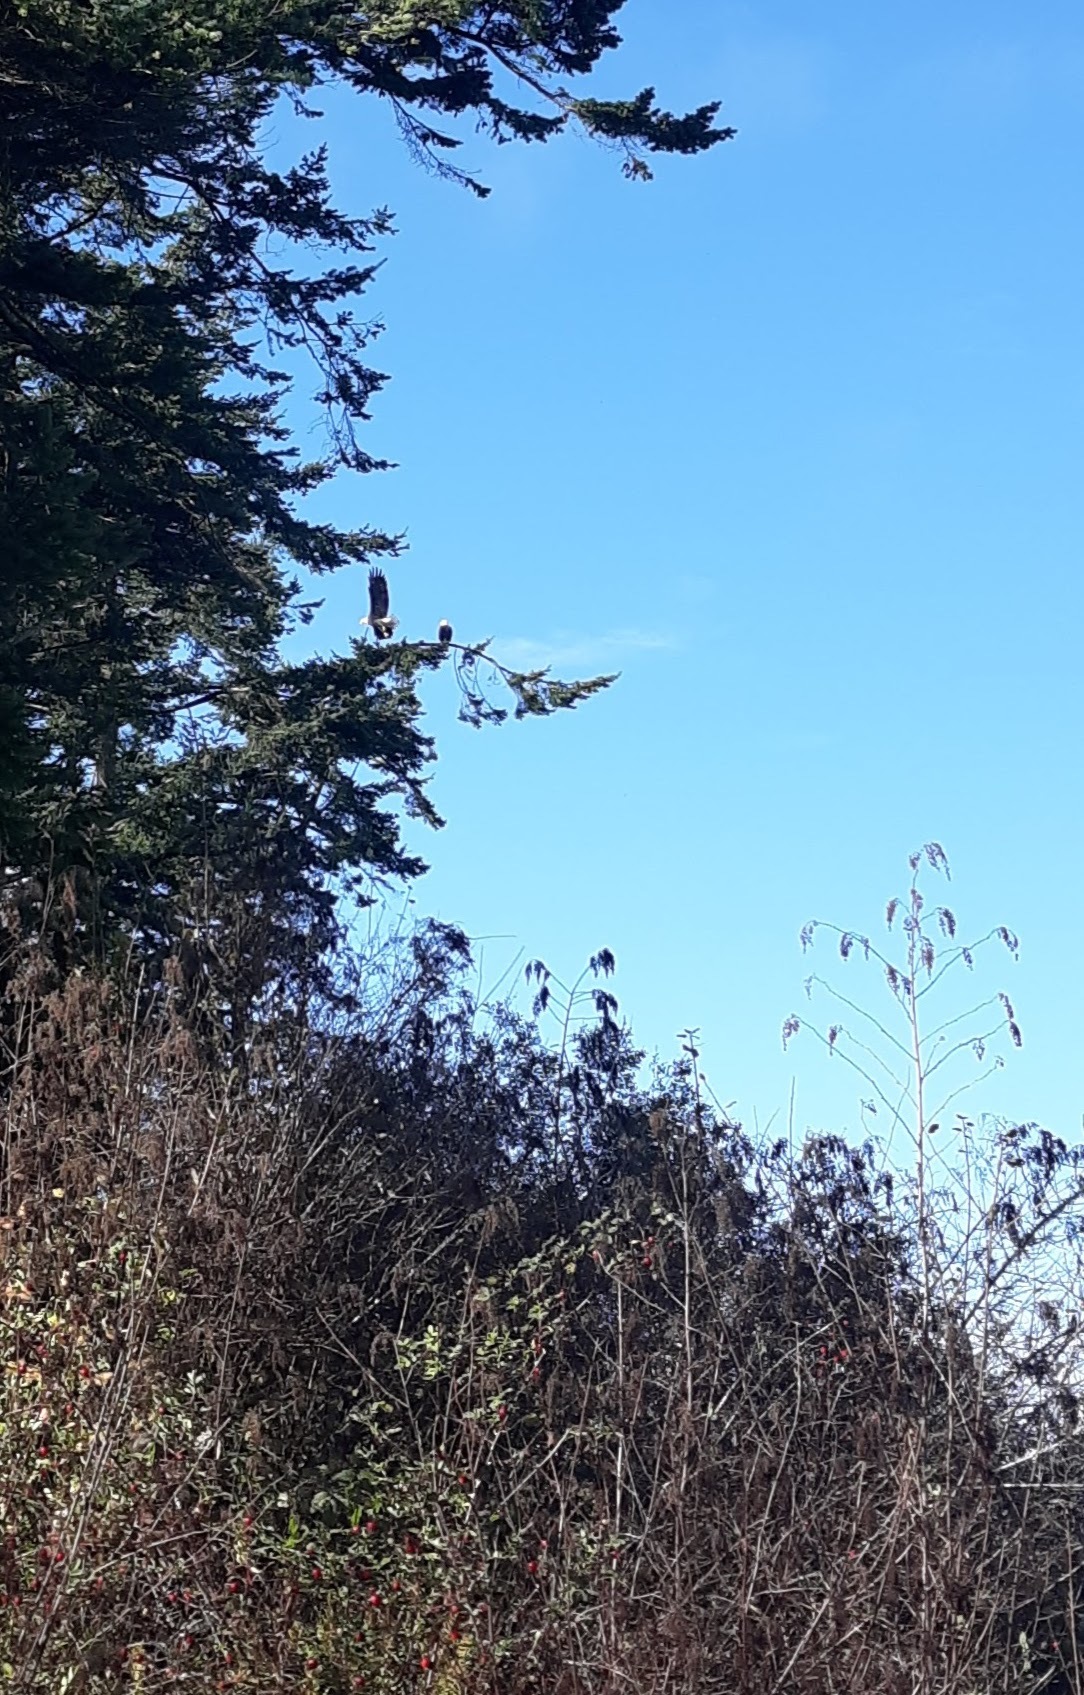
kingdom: Animalia
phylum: Chordata
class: Aves
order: Accipitriformes
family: Accipitridae
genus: Haliaeetus
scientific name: Haliaeetus leucocephalus
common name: Bald eagle
